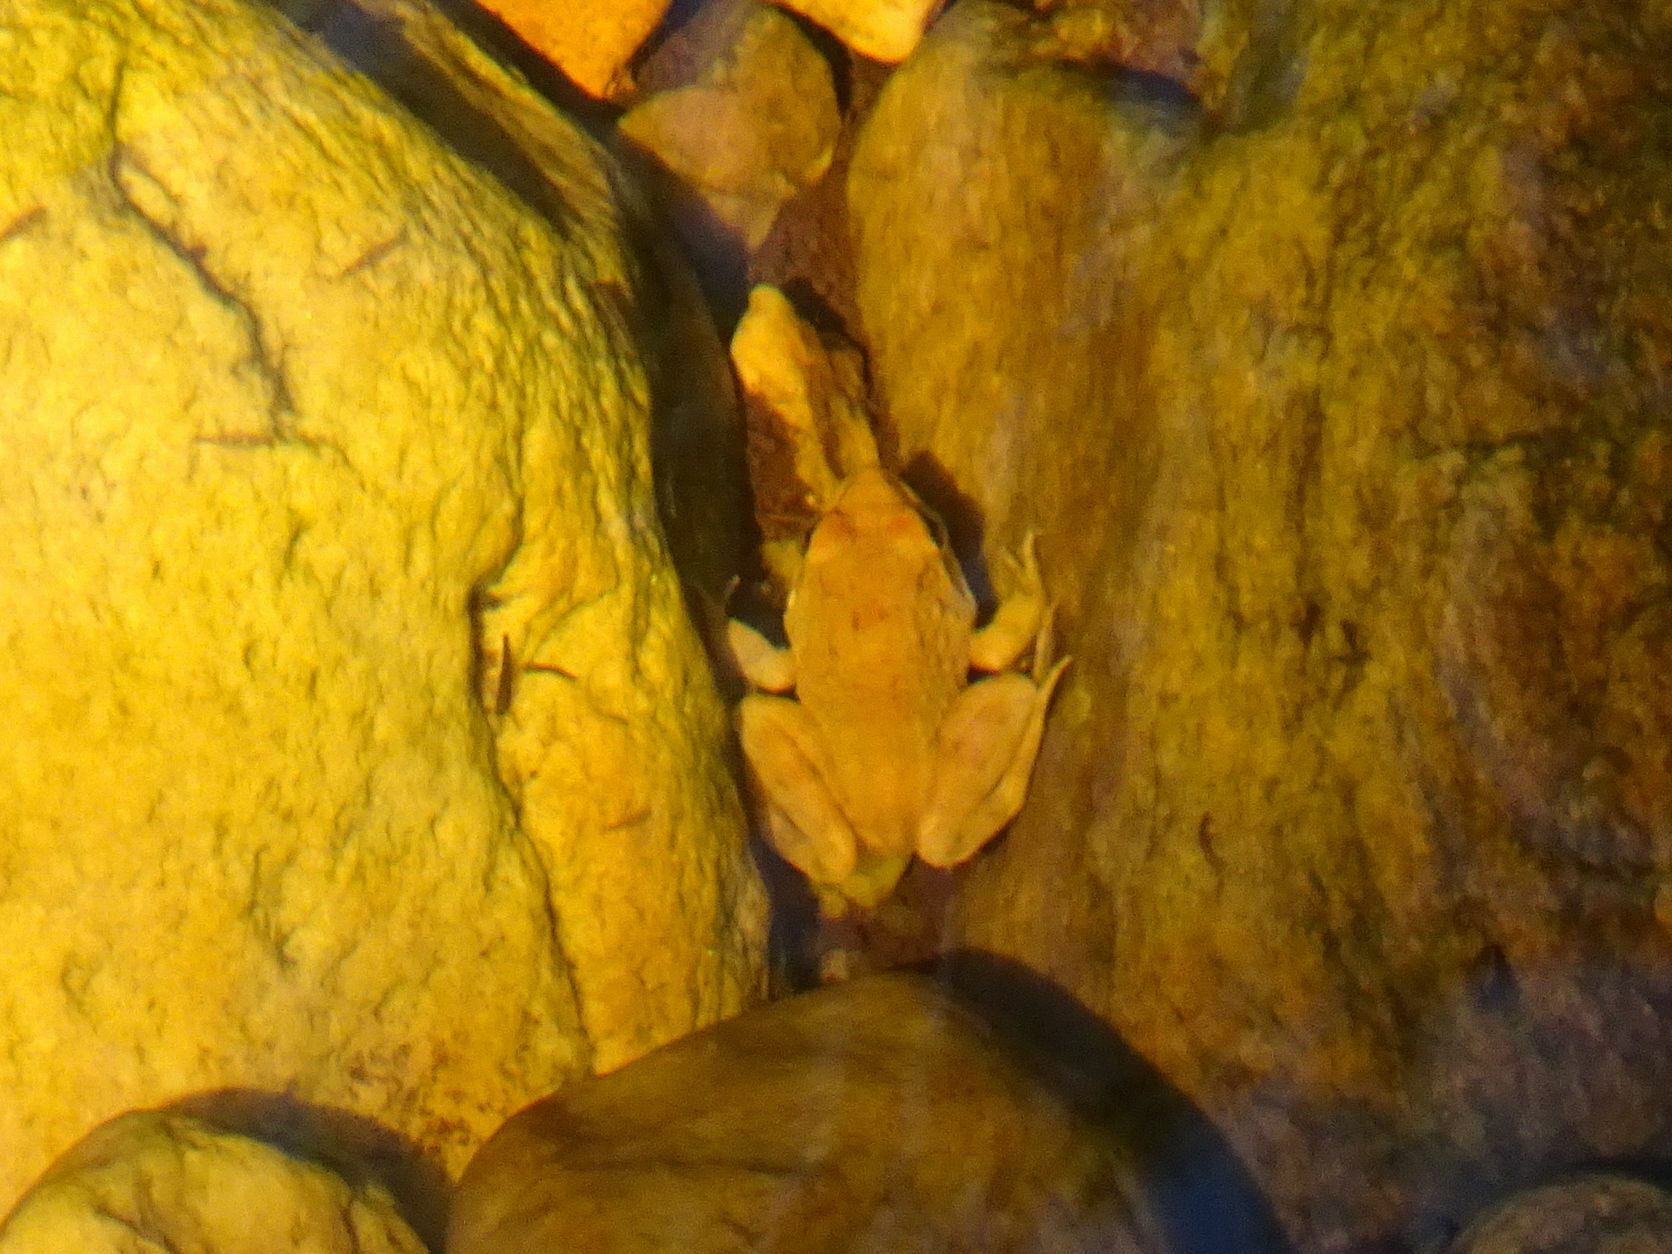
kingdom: Animalia
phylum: Chordata
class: Amphibia
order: Anura
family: Pyxicephalidae
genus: Amietia
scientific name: Amietia fuscigula
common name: Cape rana
